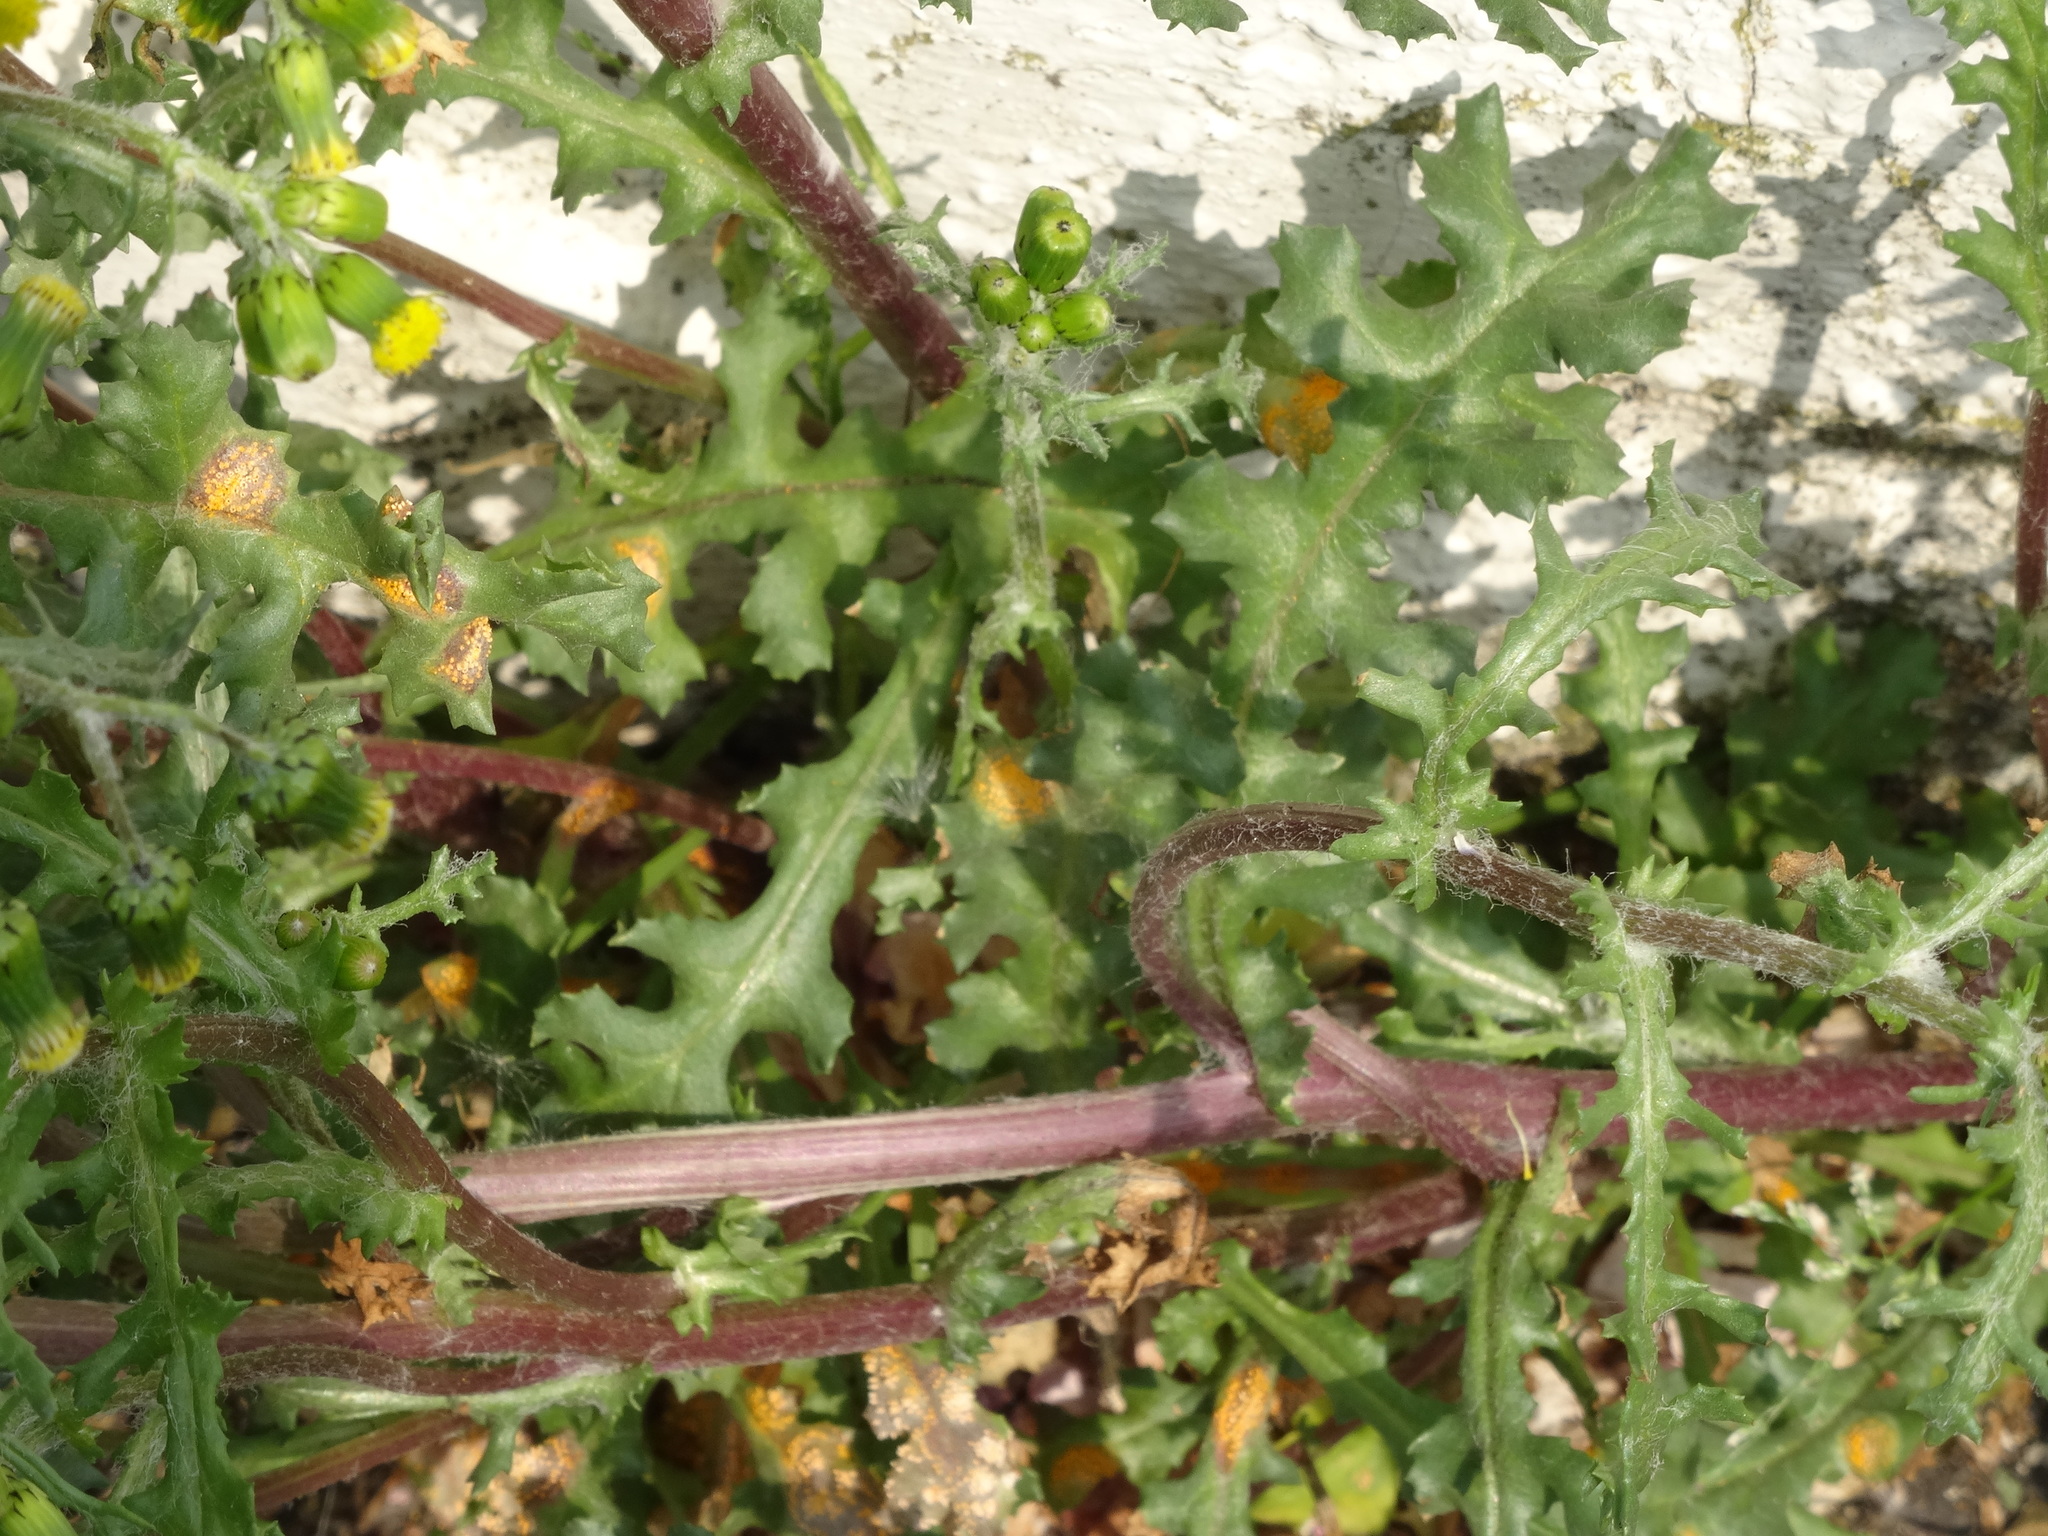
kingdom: Fungi
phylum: Basidiomycota
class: Pucciniomycetes
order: Pucciniales
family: Pucciniaceae
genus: Puccinia
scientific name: Puccinia lagenophorae
